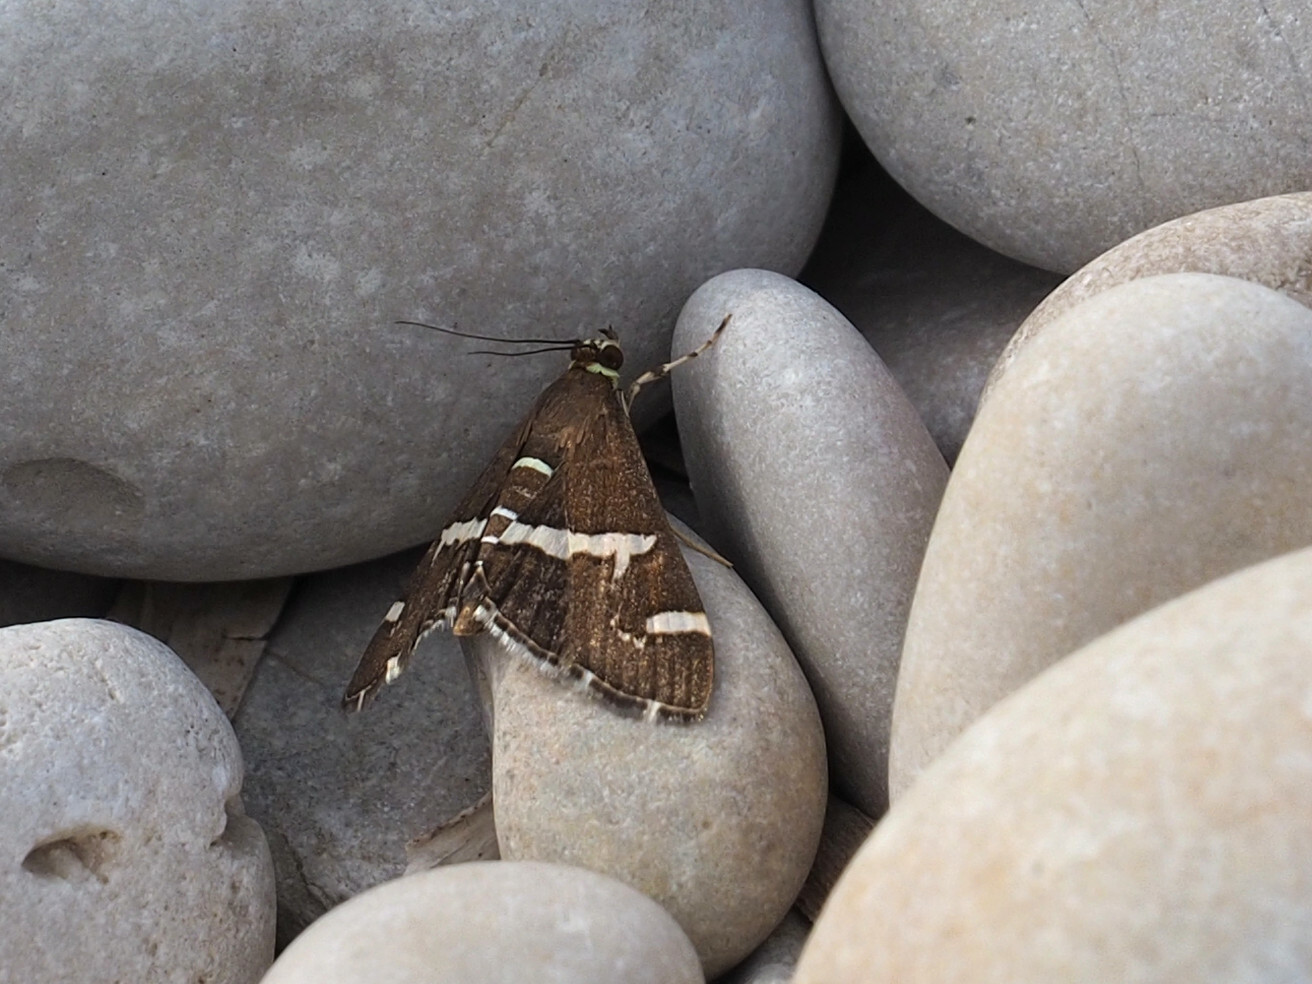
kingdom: Animalia
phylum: Arthropoda
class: Insecta
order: Lepidoptera
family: Crambidae
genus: Spoladea
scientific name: Spoladea recurvalis
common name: Beet webworm moth
